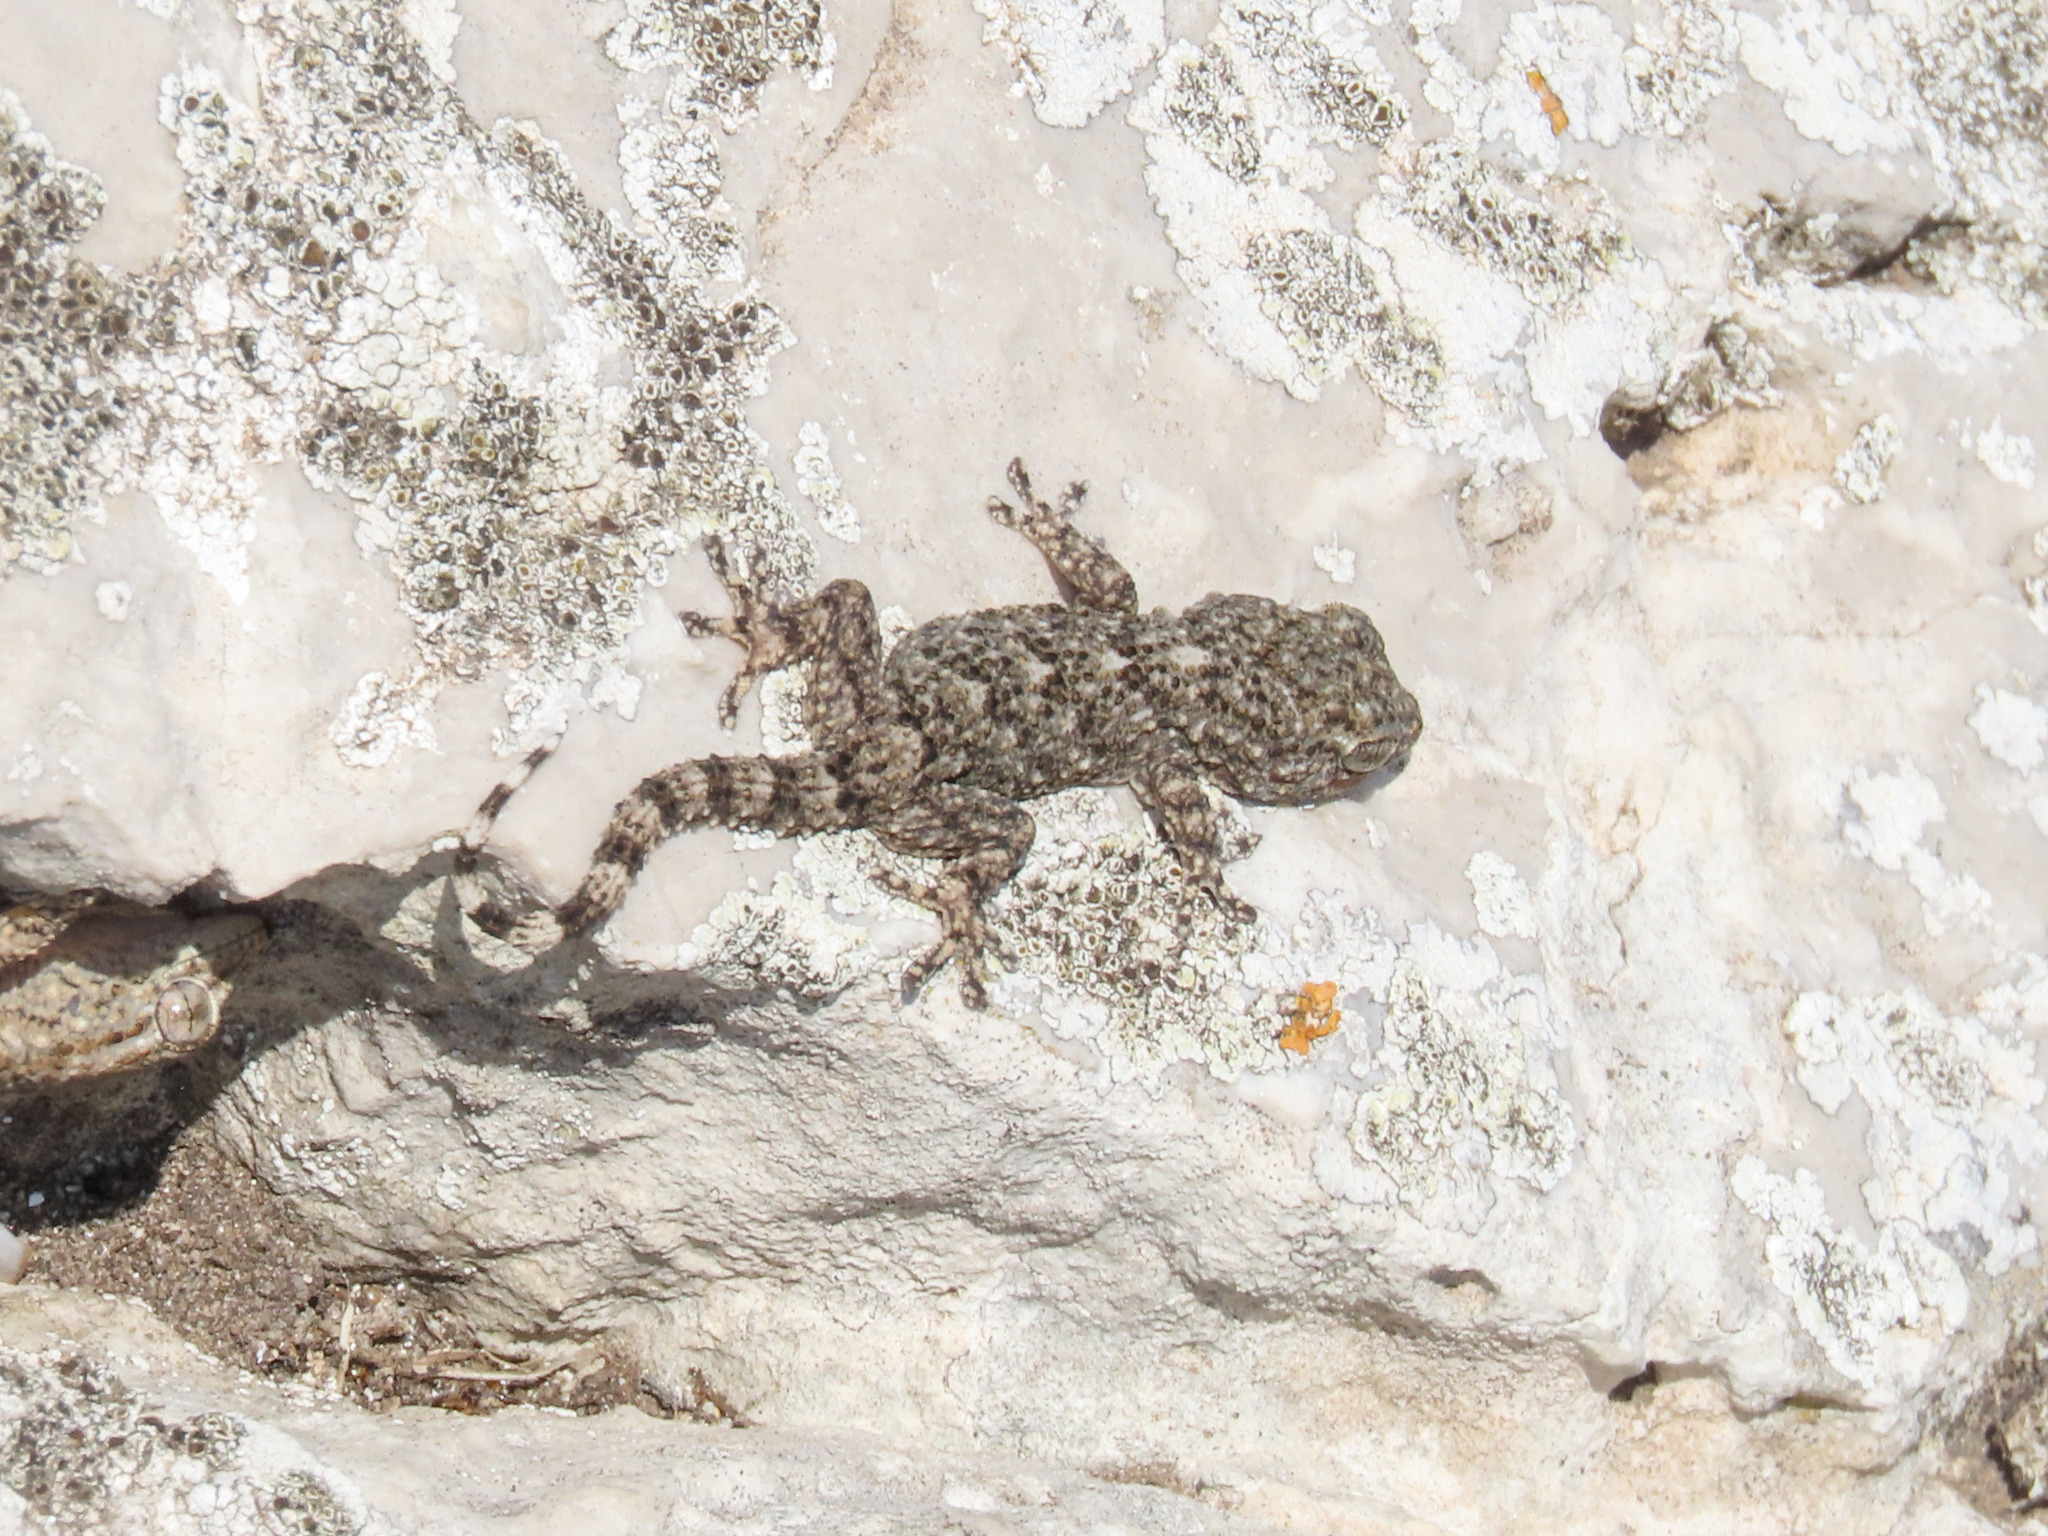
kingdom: Animalia
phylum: Chordata
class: Squamata
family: Phyllodactylidae
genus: Tarentola
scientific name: Tarentola mauritanica
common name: Moorish gecko
